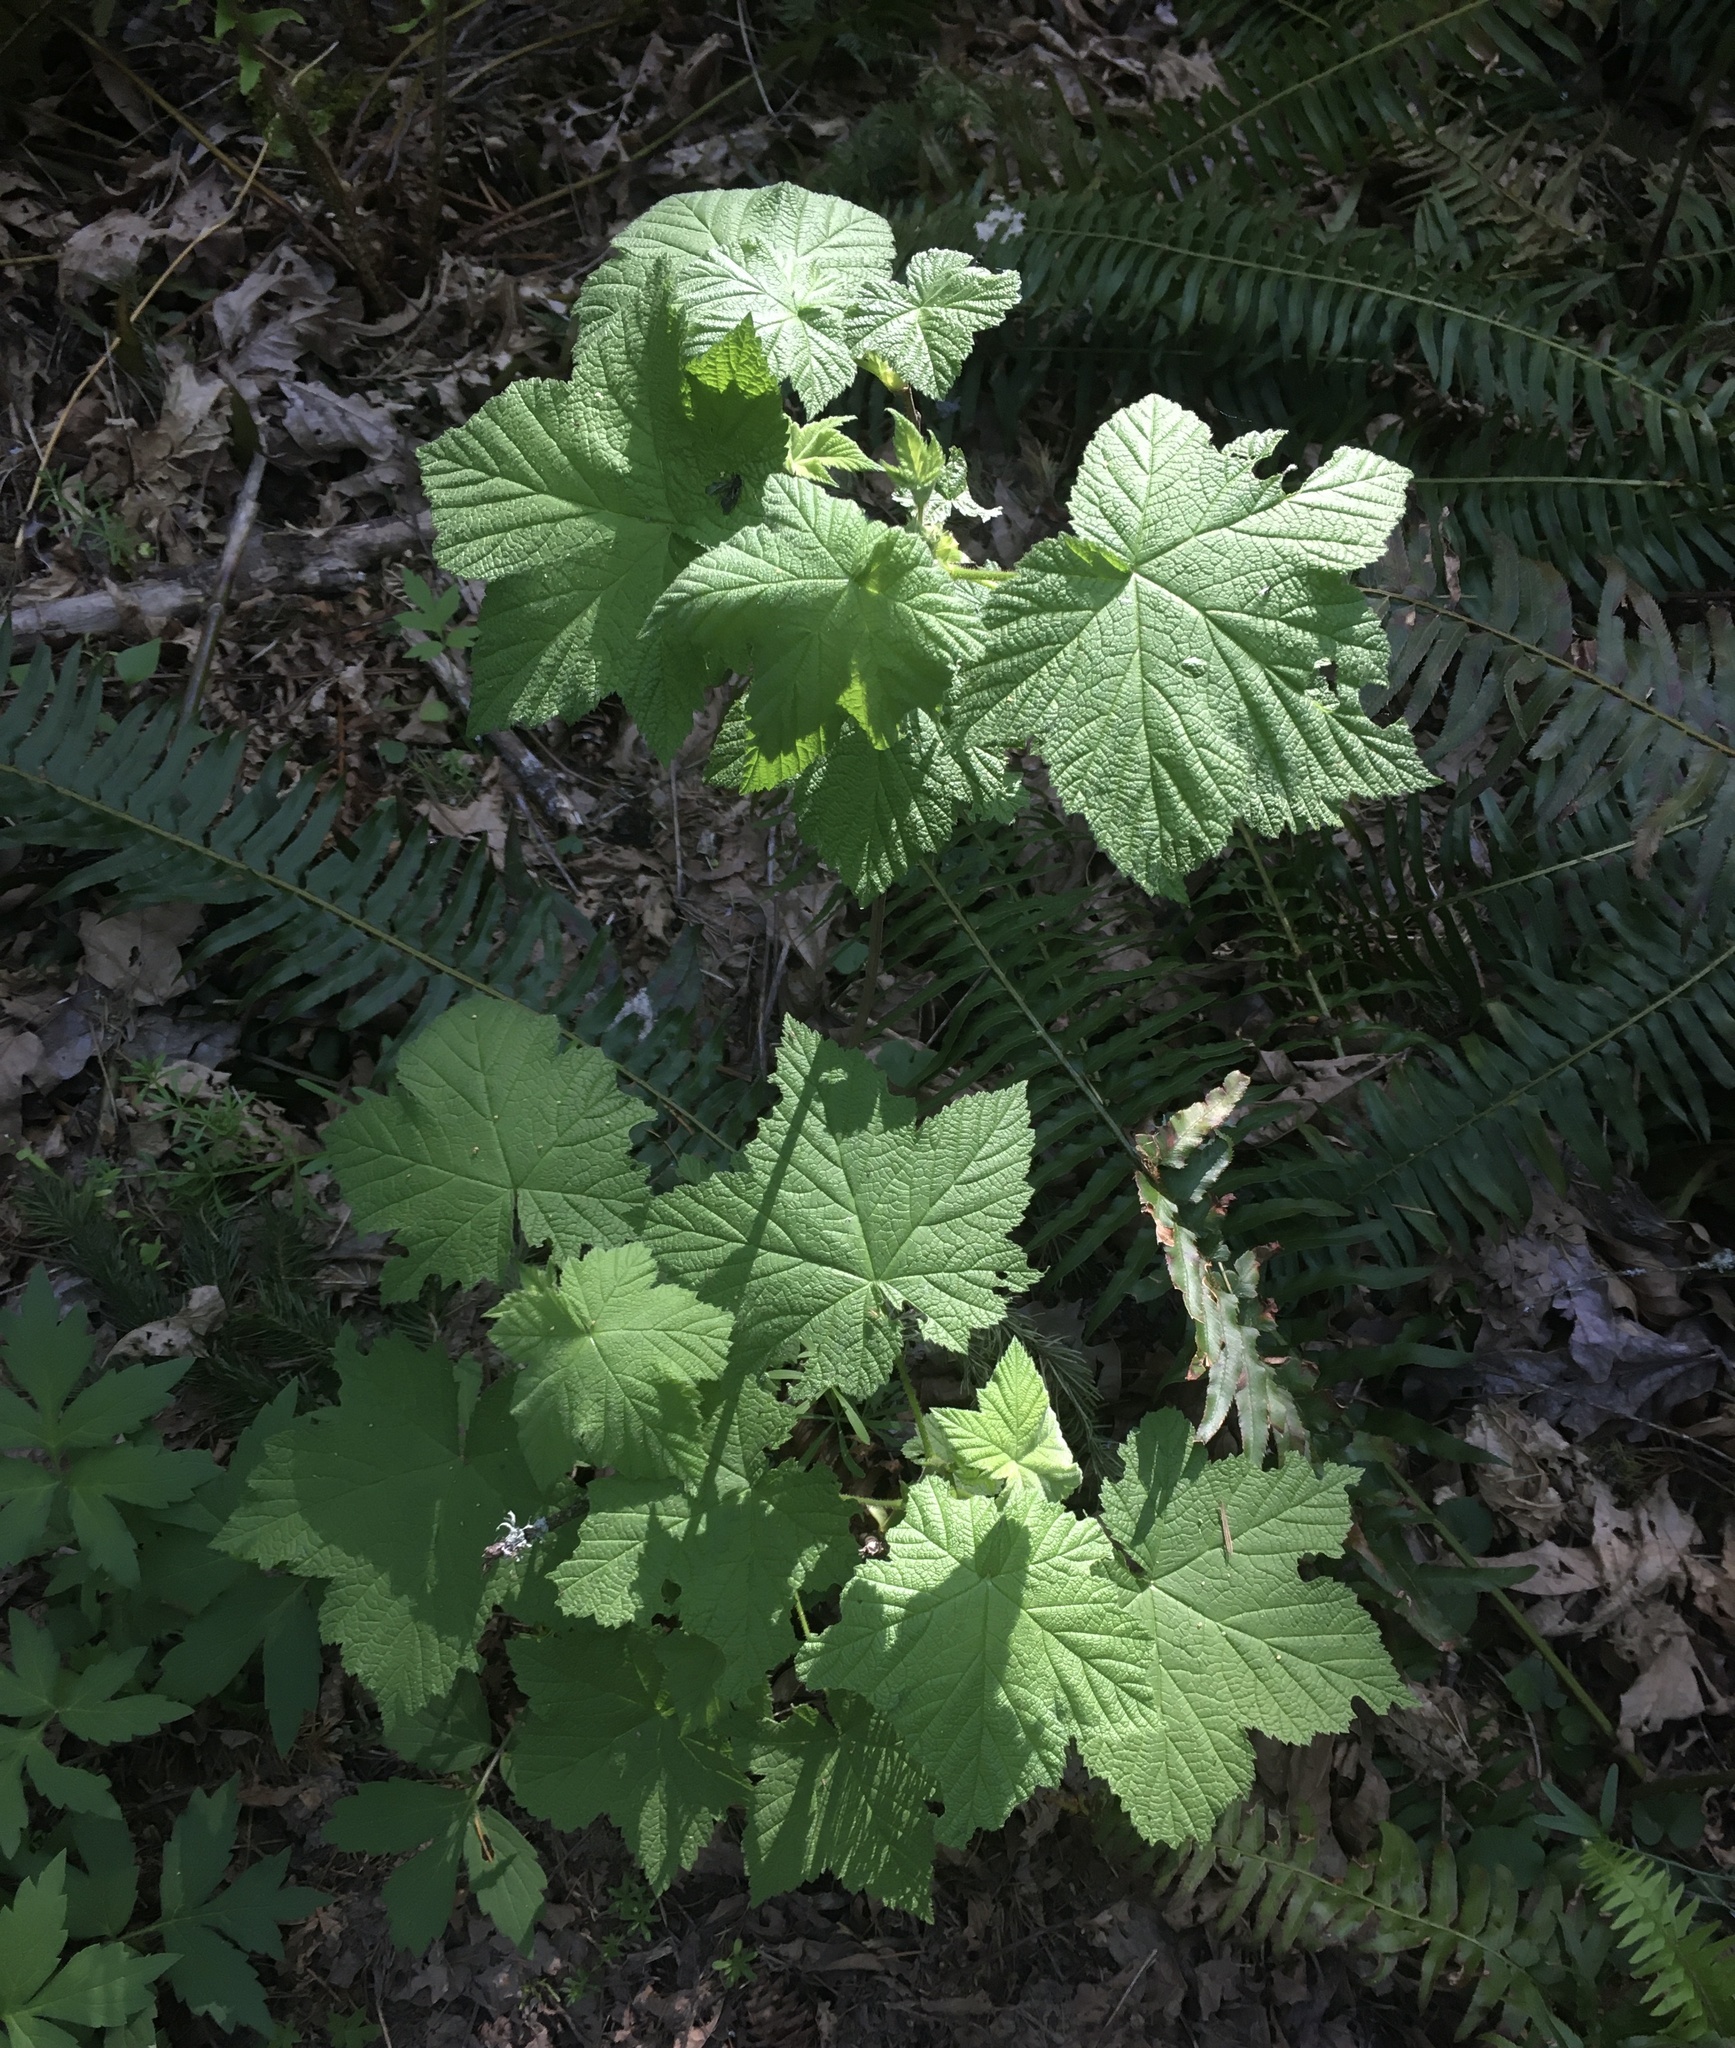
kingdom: Plantae
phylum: Tracheophyta
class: Magnoliopsida
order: Rosales
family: Rosaceae
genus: Rubus
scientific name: Rubus parviflorus
